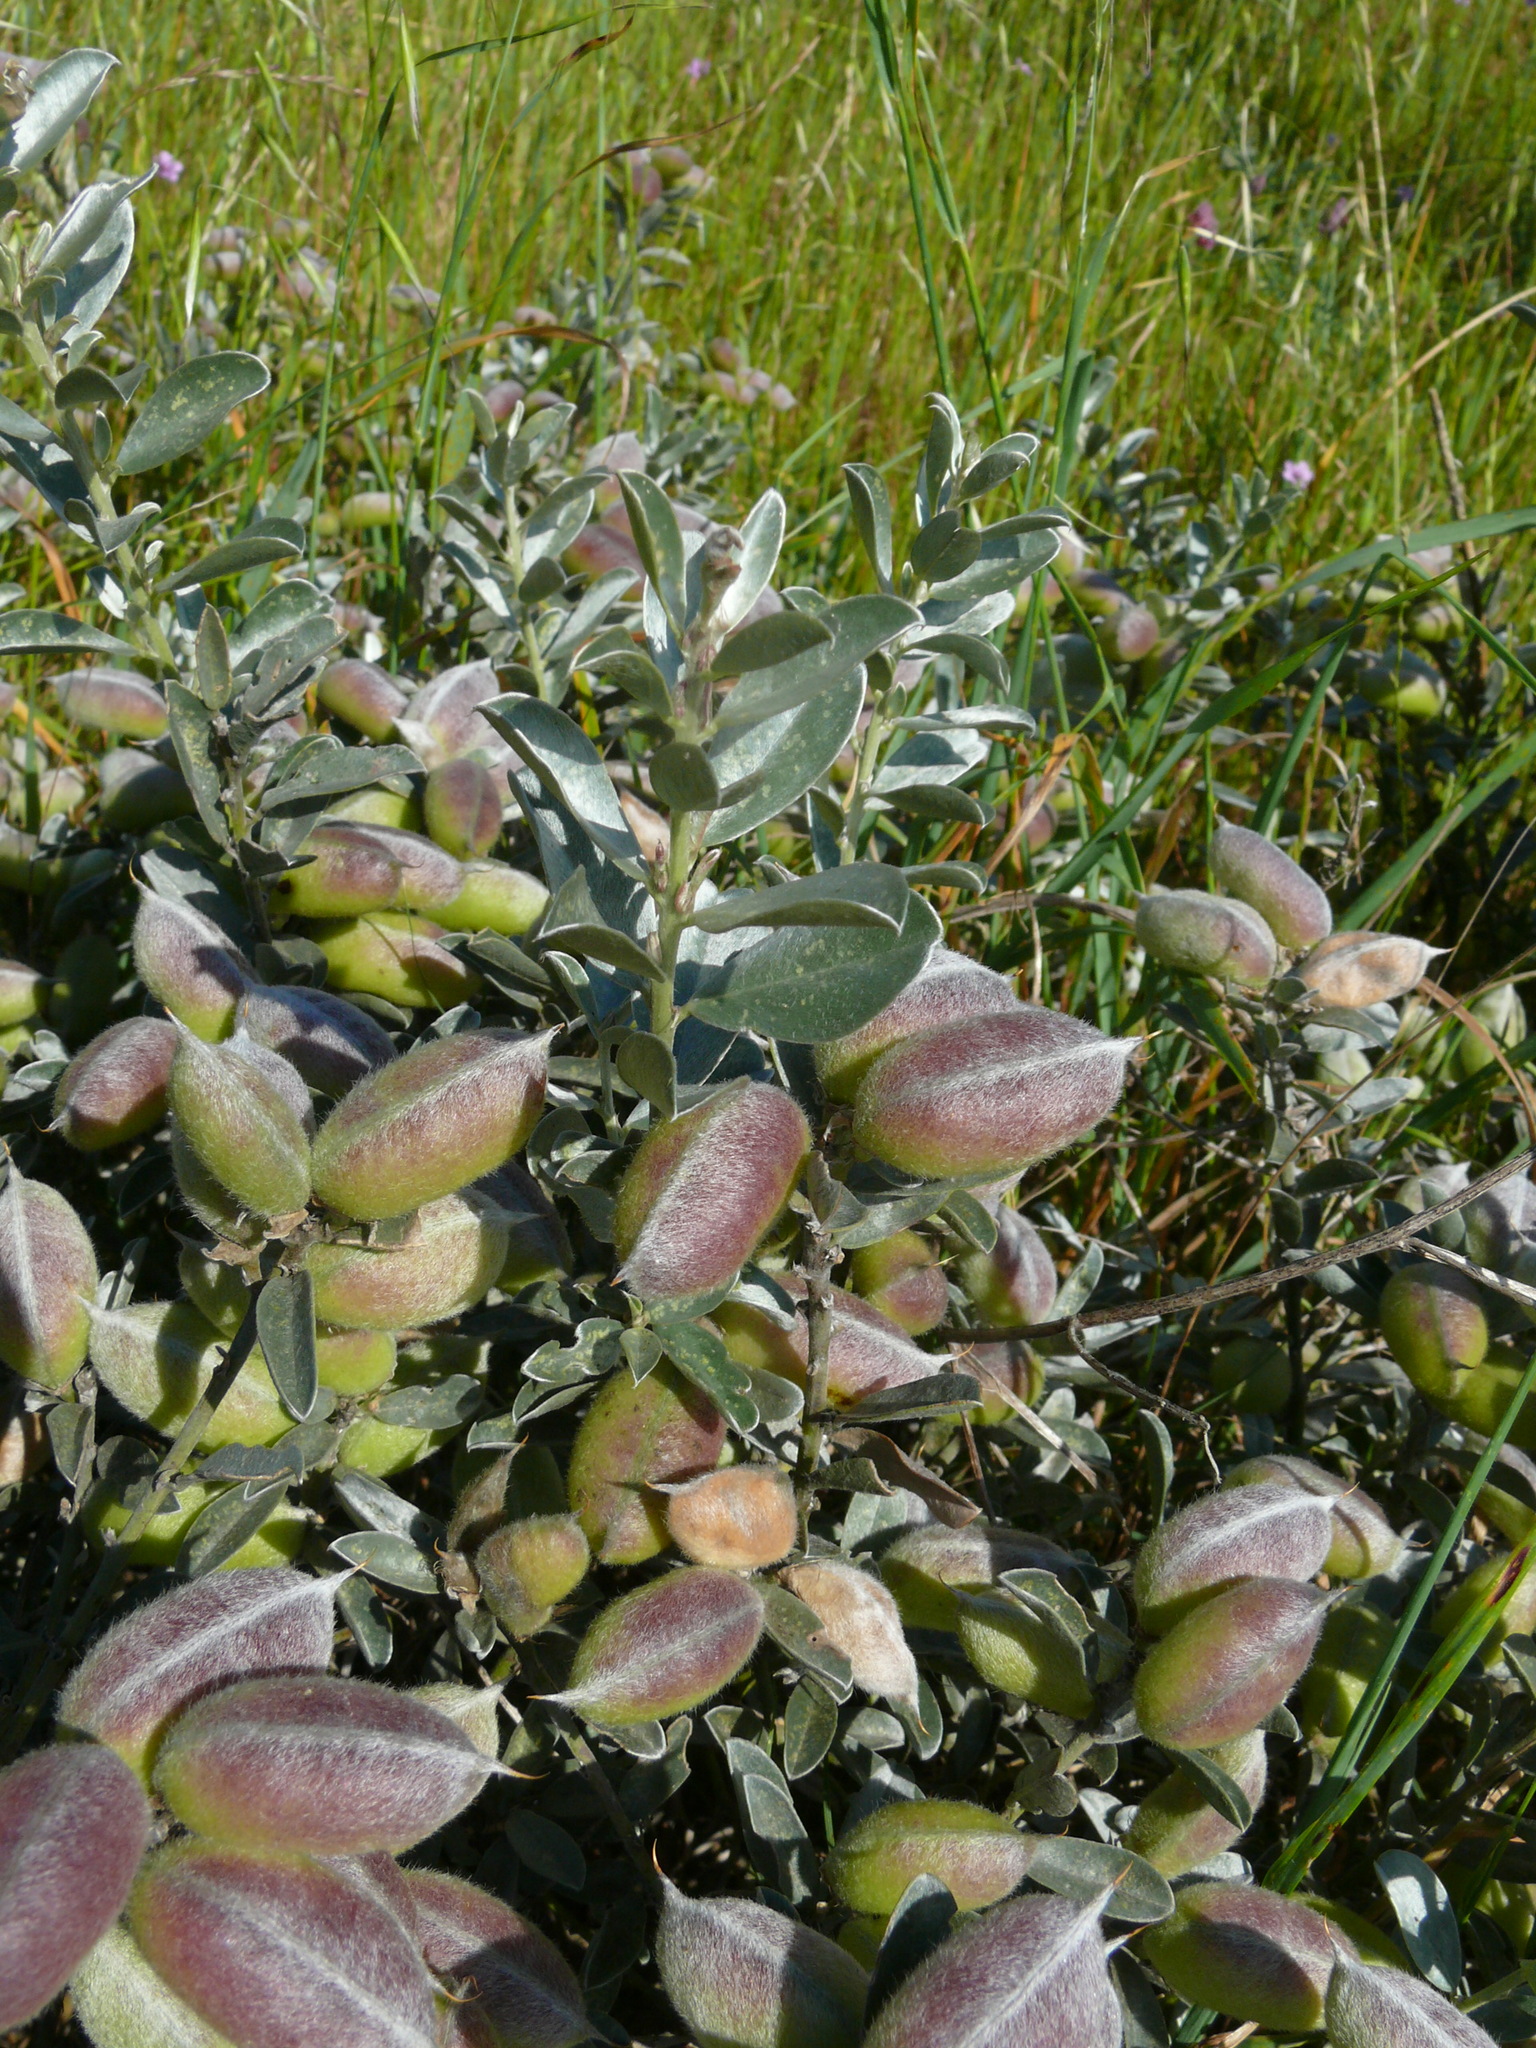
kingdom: Plantae
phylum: Tracheophyta
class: Magnoliopsida
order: Fabales
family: Fabaceae
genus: Podalyria
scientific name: Podalyria sericea
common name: Silver podalyria
